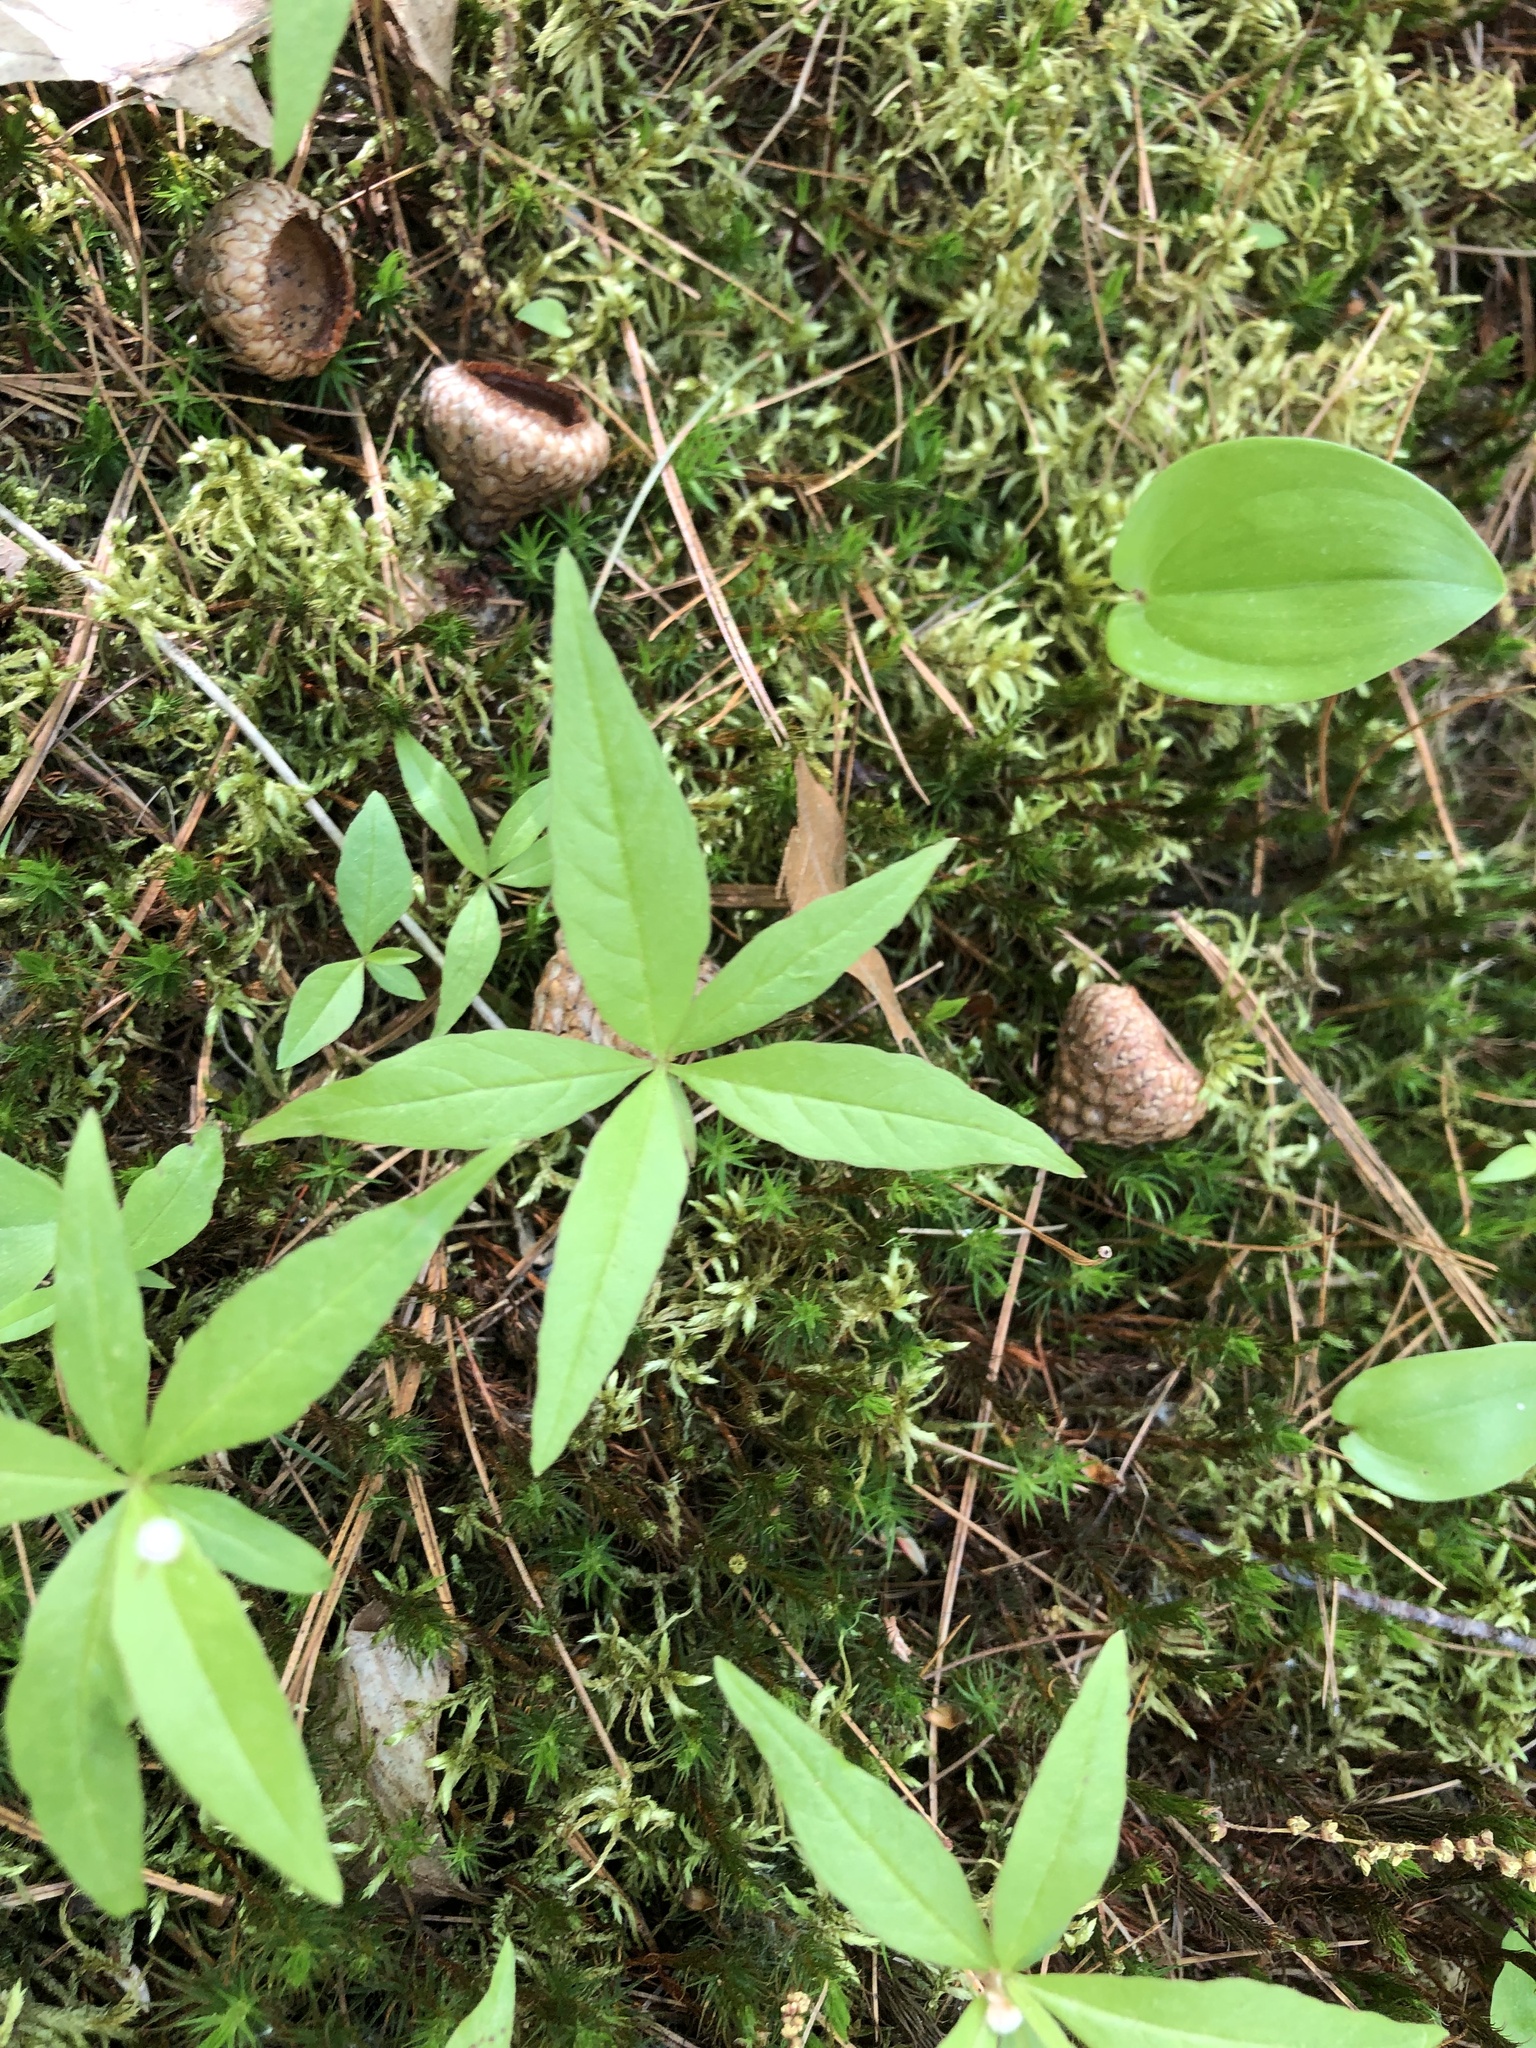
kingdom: Plantae
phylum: Tracheophyta
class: Magnoliopsida
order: Ericales
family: Primulaceae
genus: Lysimachia
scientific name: Lysimachia borealis
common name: American starflower
